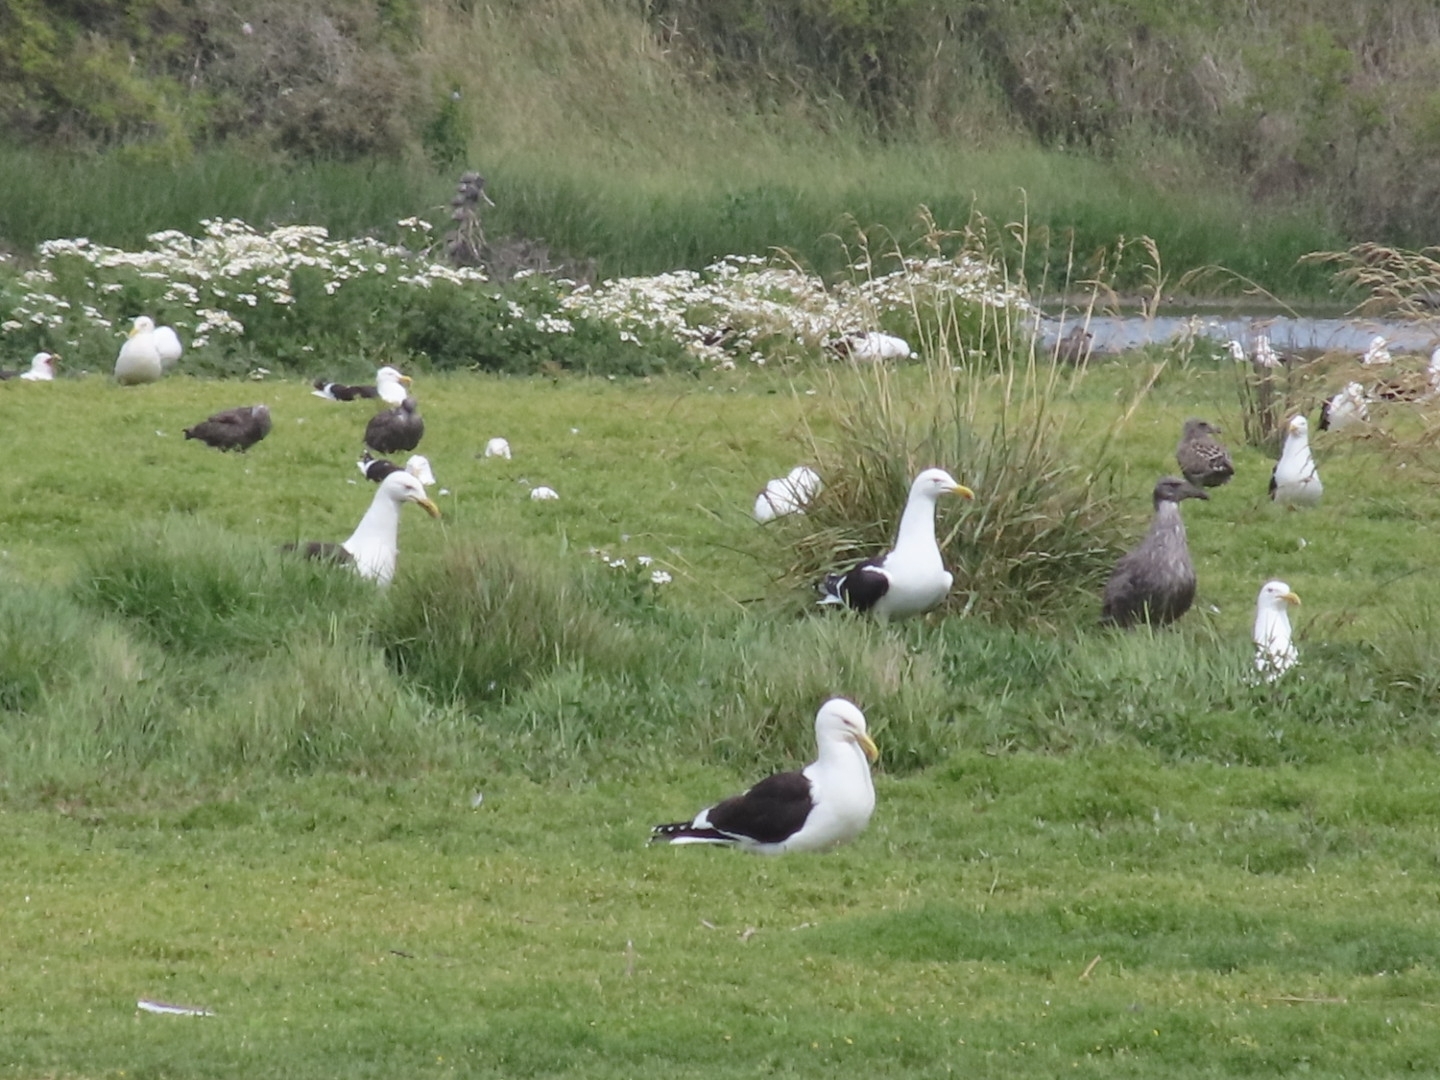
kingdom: Animalia
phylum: Chordata
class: Aves
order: Charadriiformes
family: Laridae
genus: Larus
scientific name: Larus dominicanus
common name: Kelp gull
